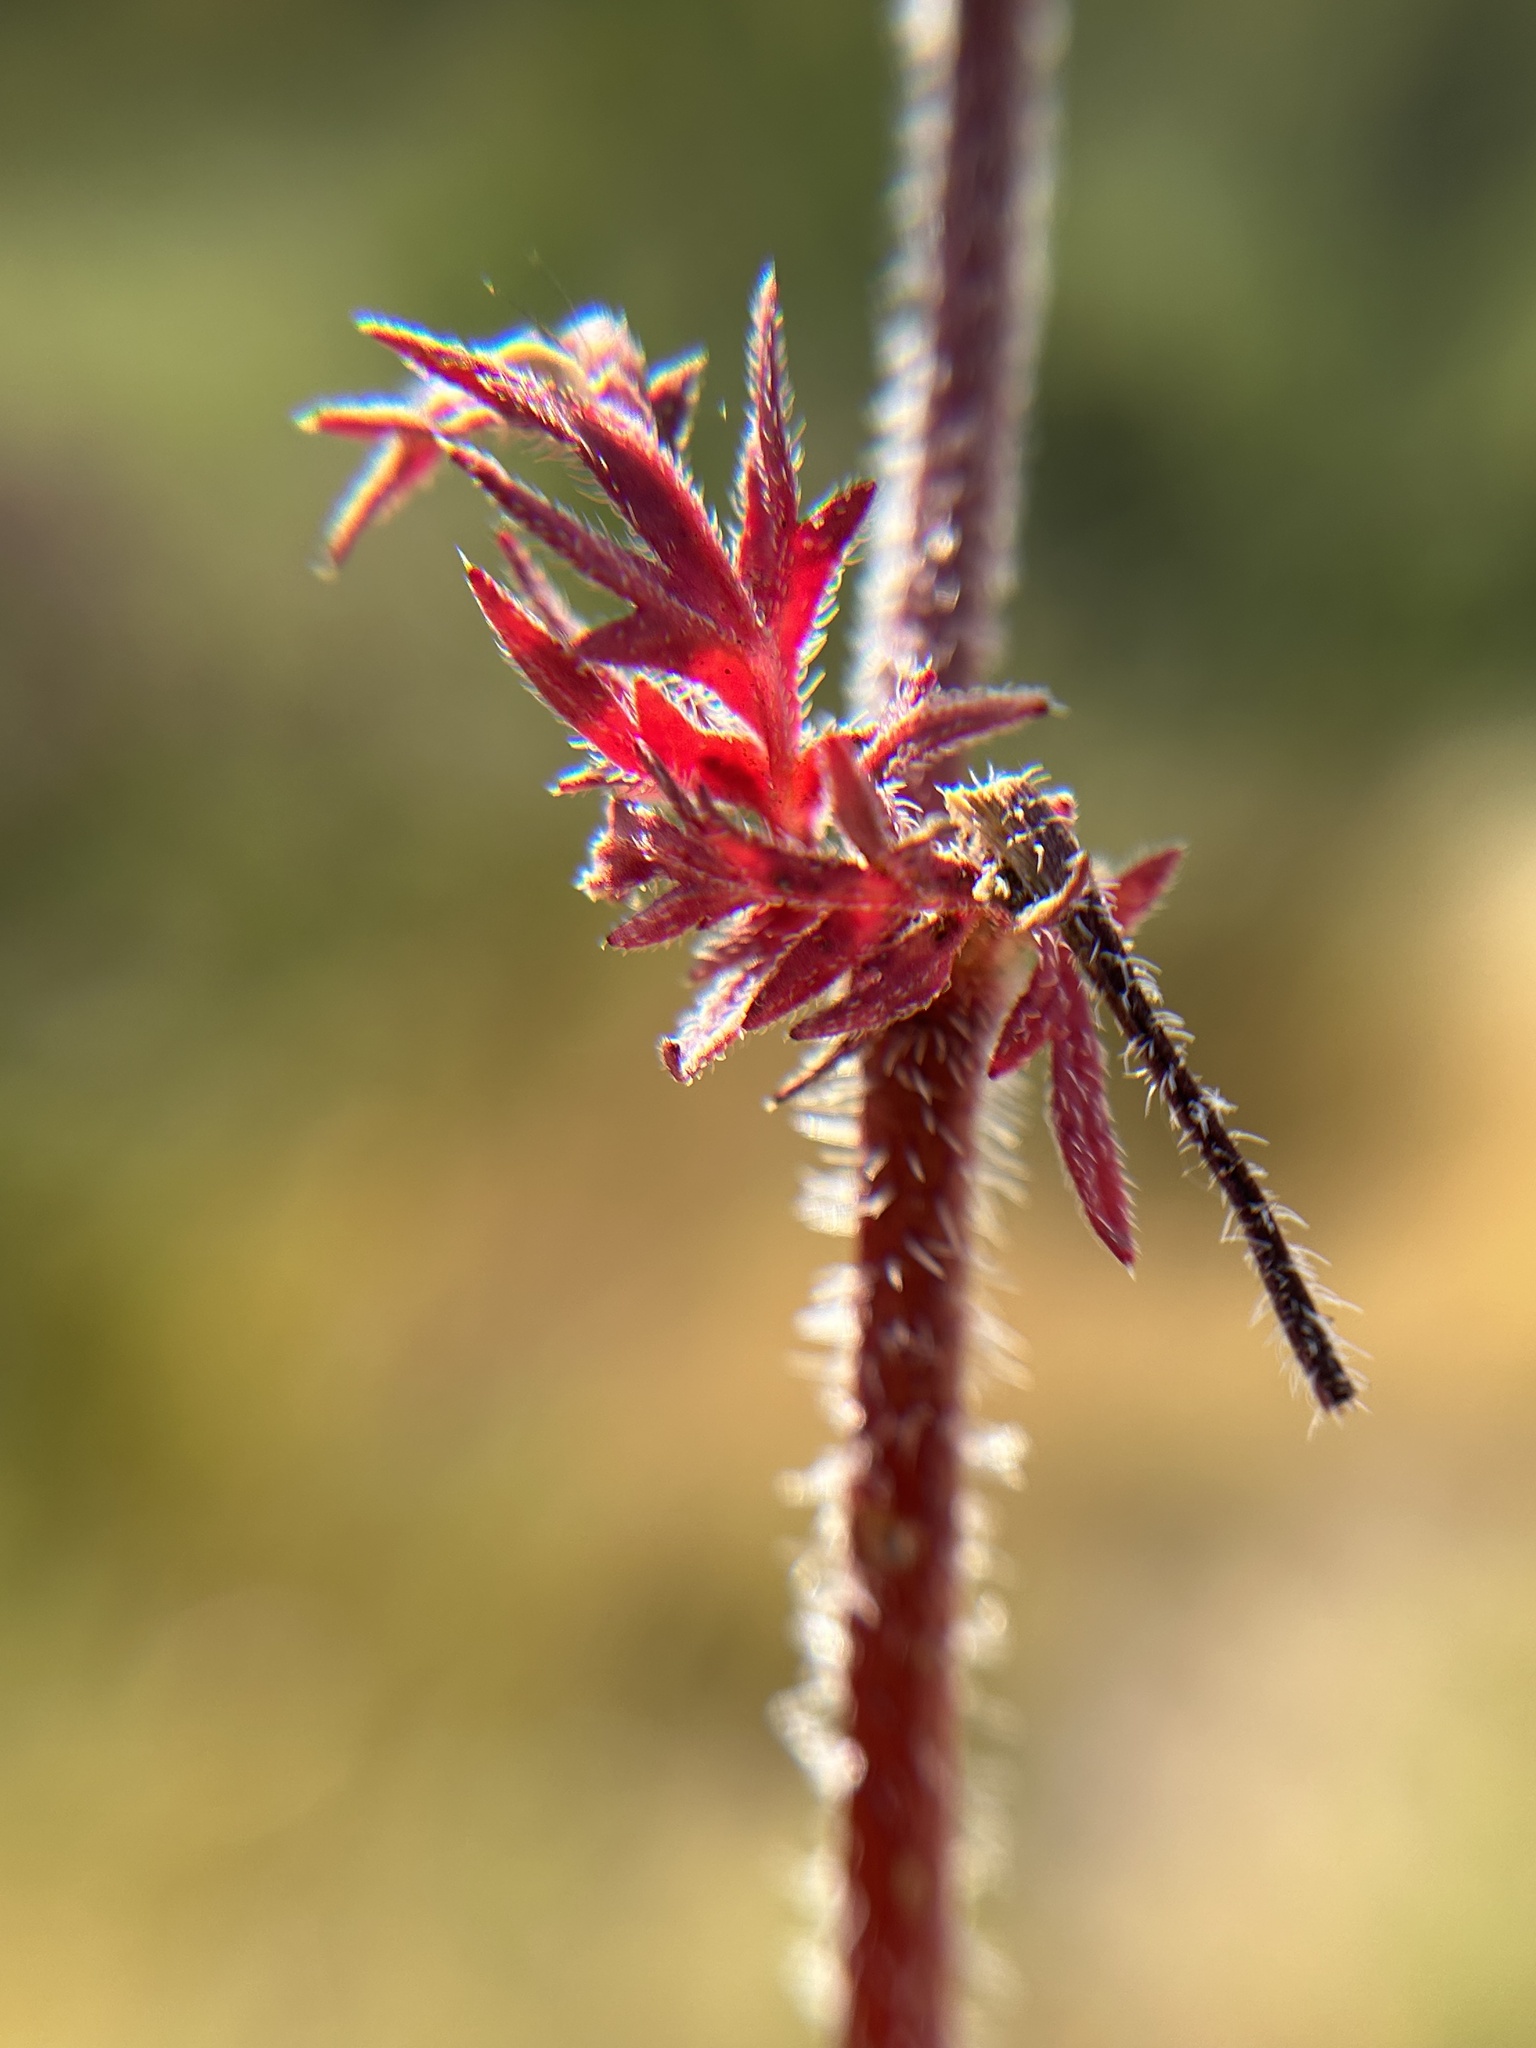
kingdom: Plantae
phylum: Tracheophyta
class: Magnoliopsida
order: Geraniales
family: Geraniaceae
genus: Erodium
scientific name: Erodium botrys
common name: Mediterranean stork's-bill
